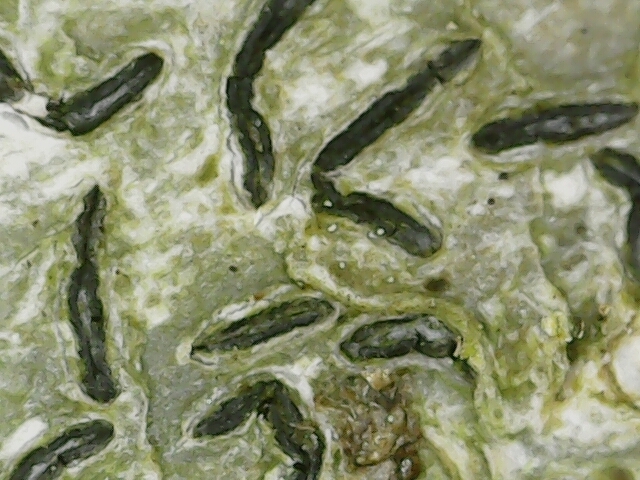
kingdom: Fungi
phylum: Ascomycota
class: Dothideomycetes
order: Mycosphaerellales
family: Mycosphaerellaceae
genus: Stigmidium
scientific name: Stigmidium microspilum
